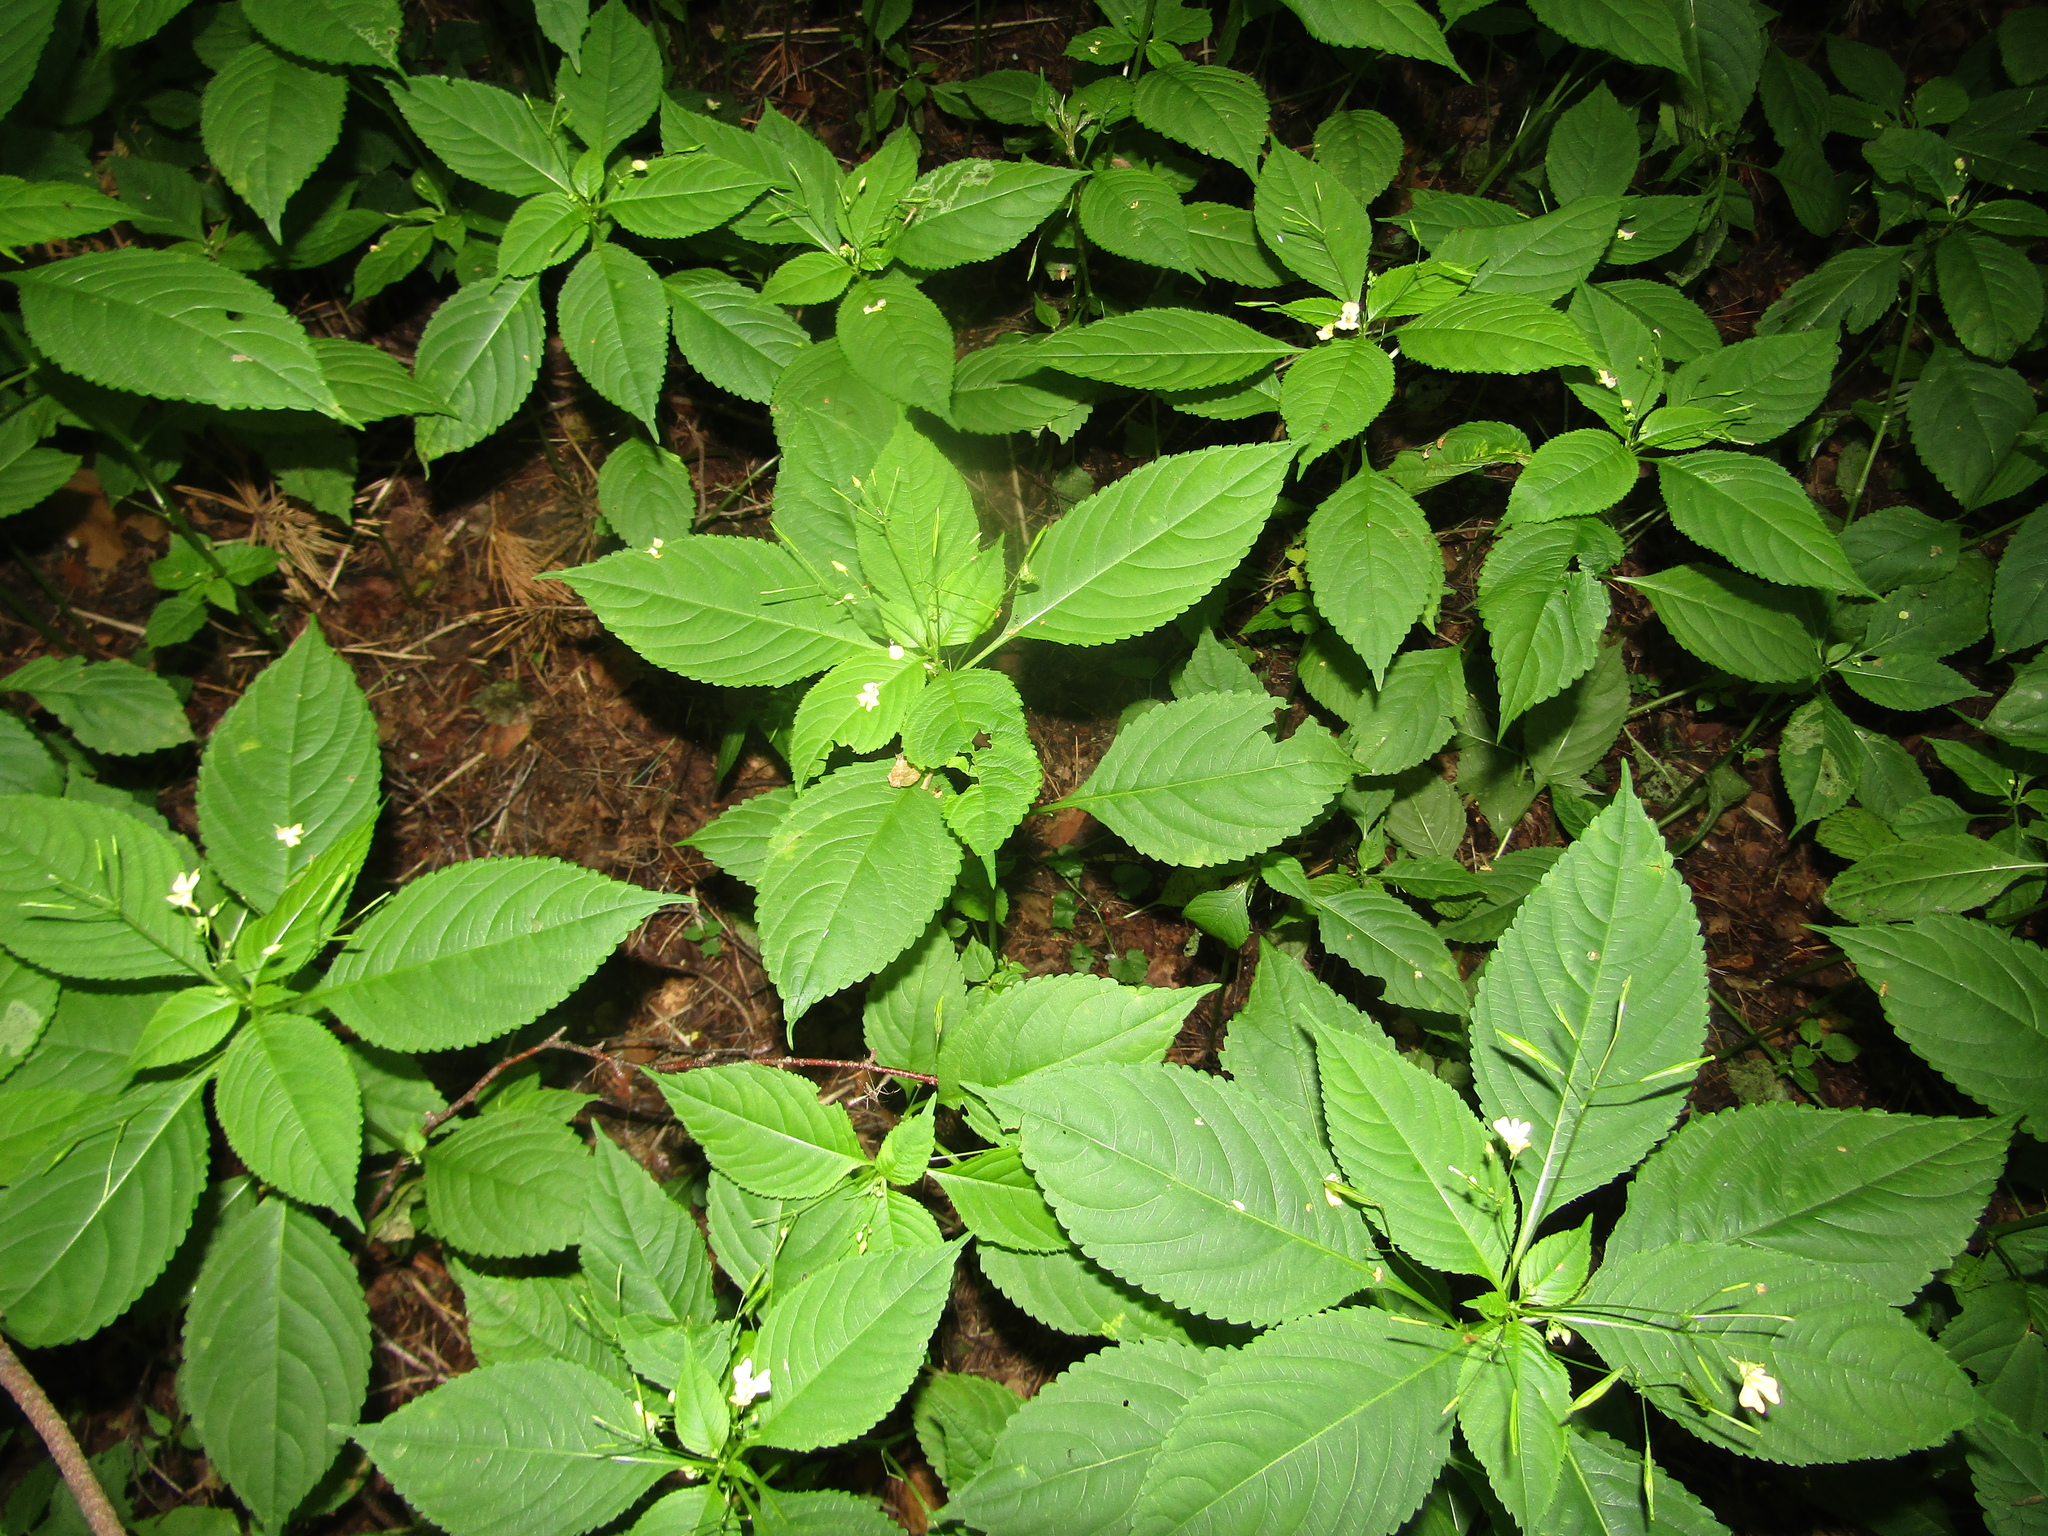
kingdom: Plantae
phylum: Tracheophyta
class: Magnoliopsida
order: Ericales
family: Balsaminaceae
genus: Impatiens
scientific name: Impatiens parviflora
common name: Small balsam
